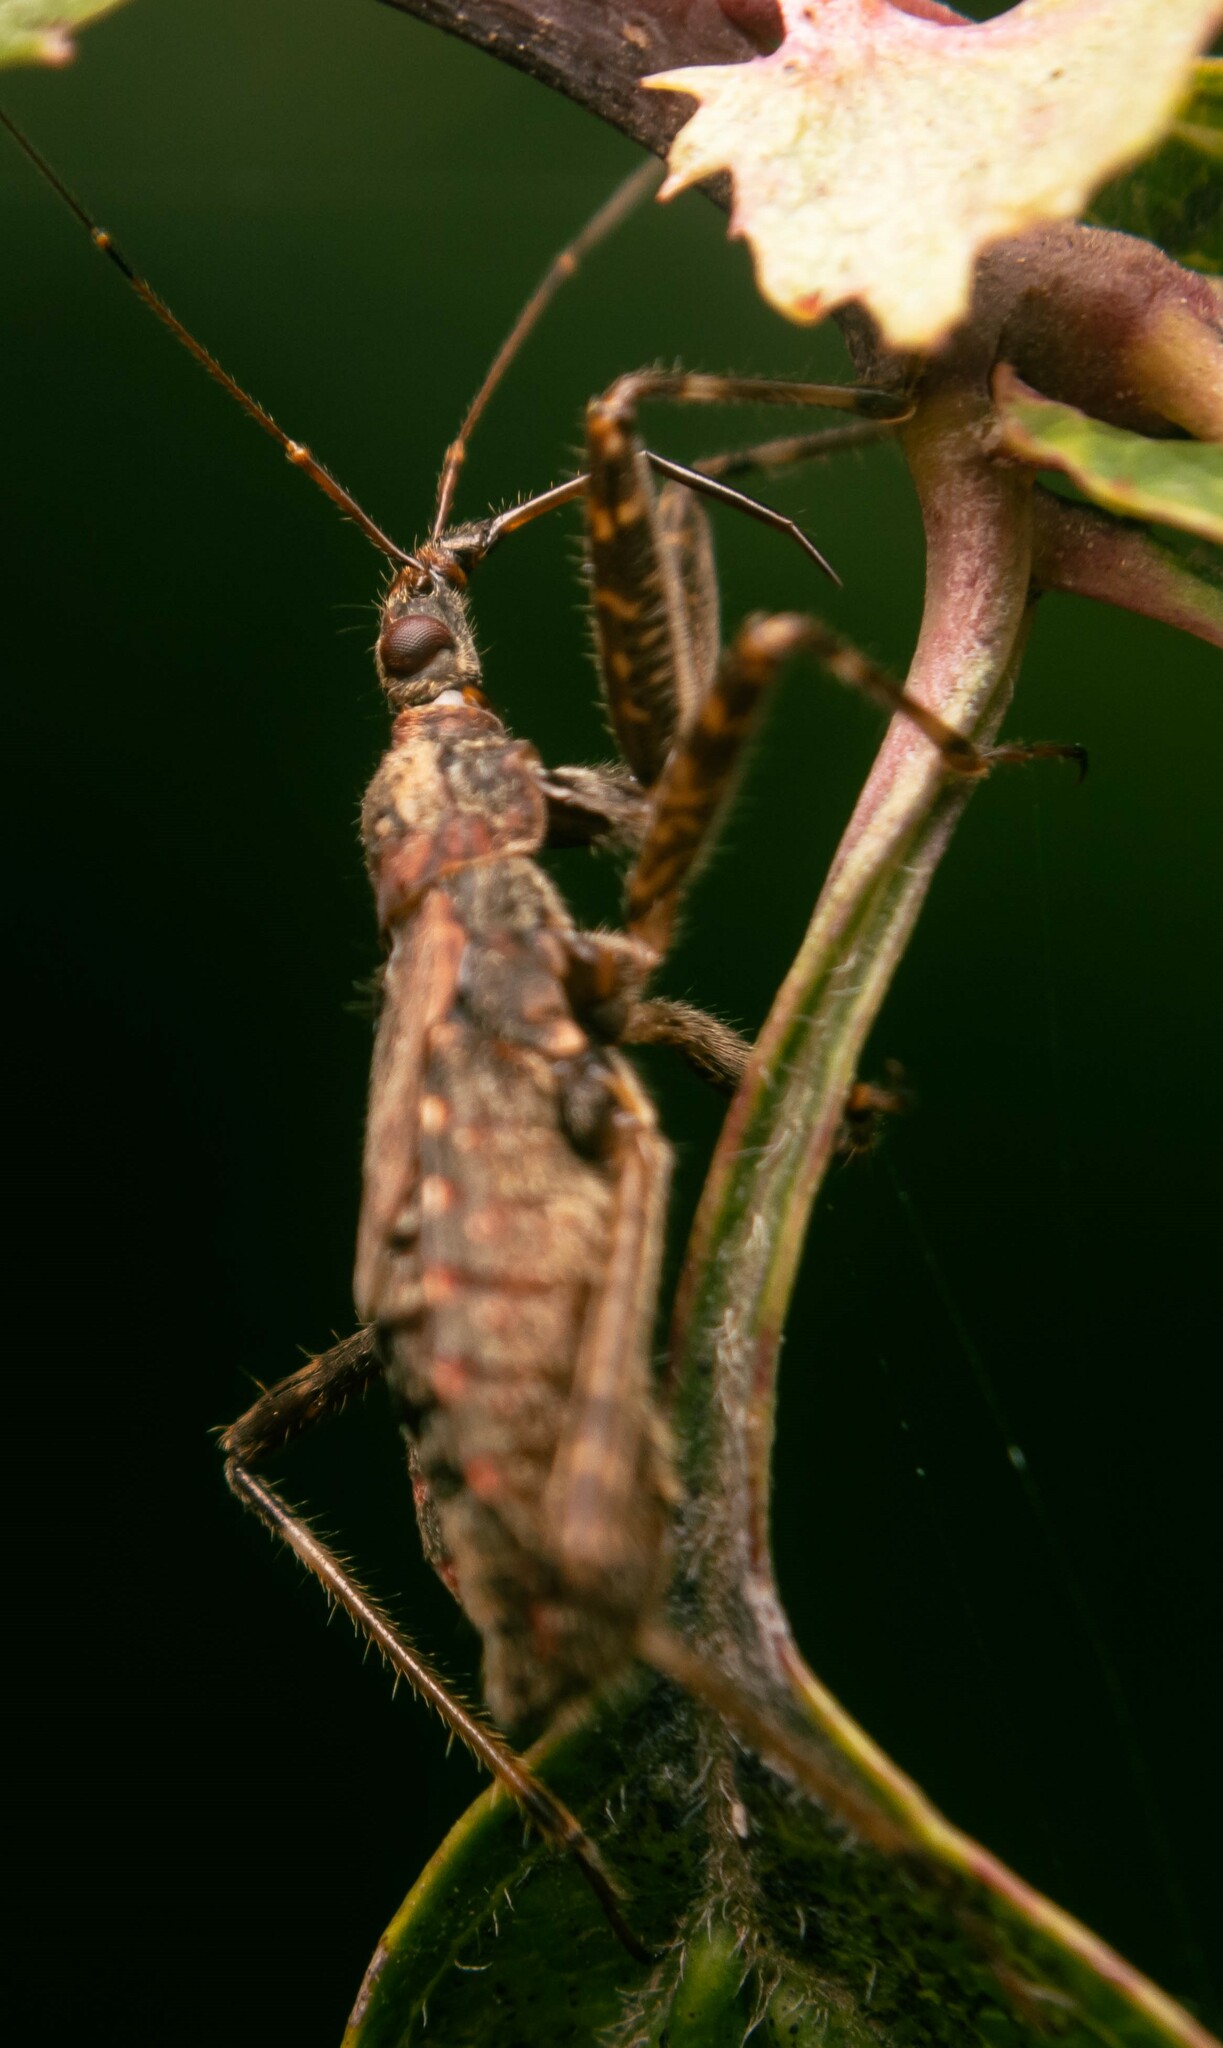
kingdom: Animalia
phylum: Arthropoda
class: Insecta
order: Hemiptera
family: Nabidae
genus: Himacerus
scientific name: Himacerus apterus
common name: Tree damsel bug
